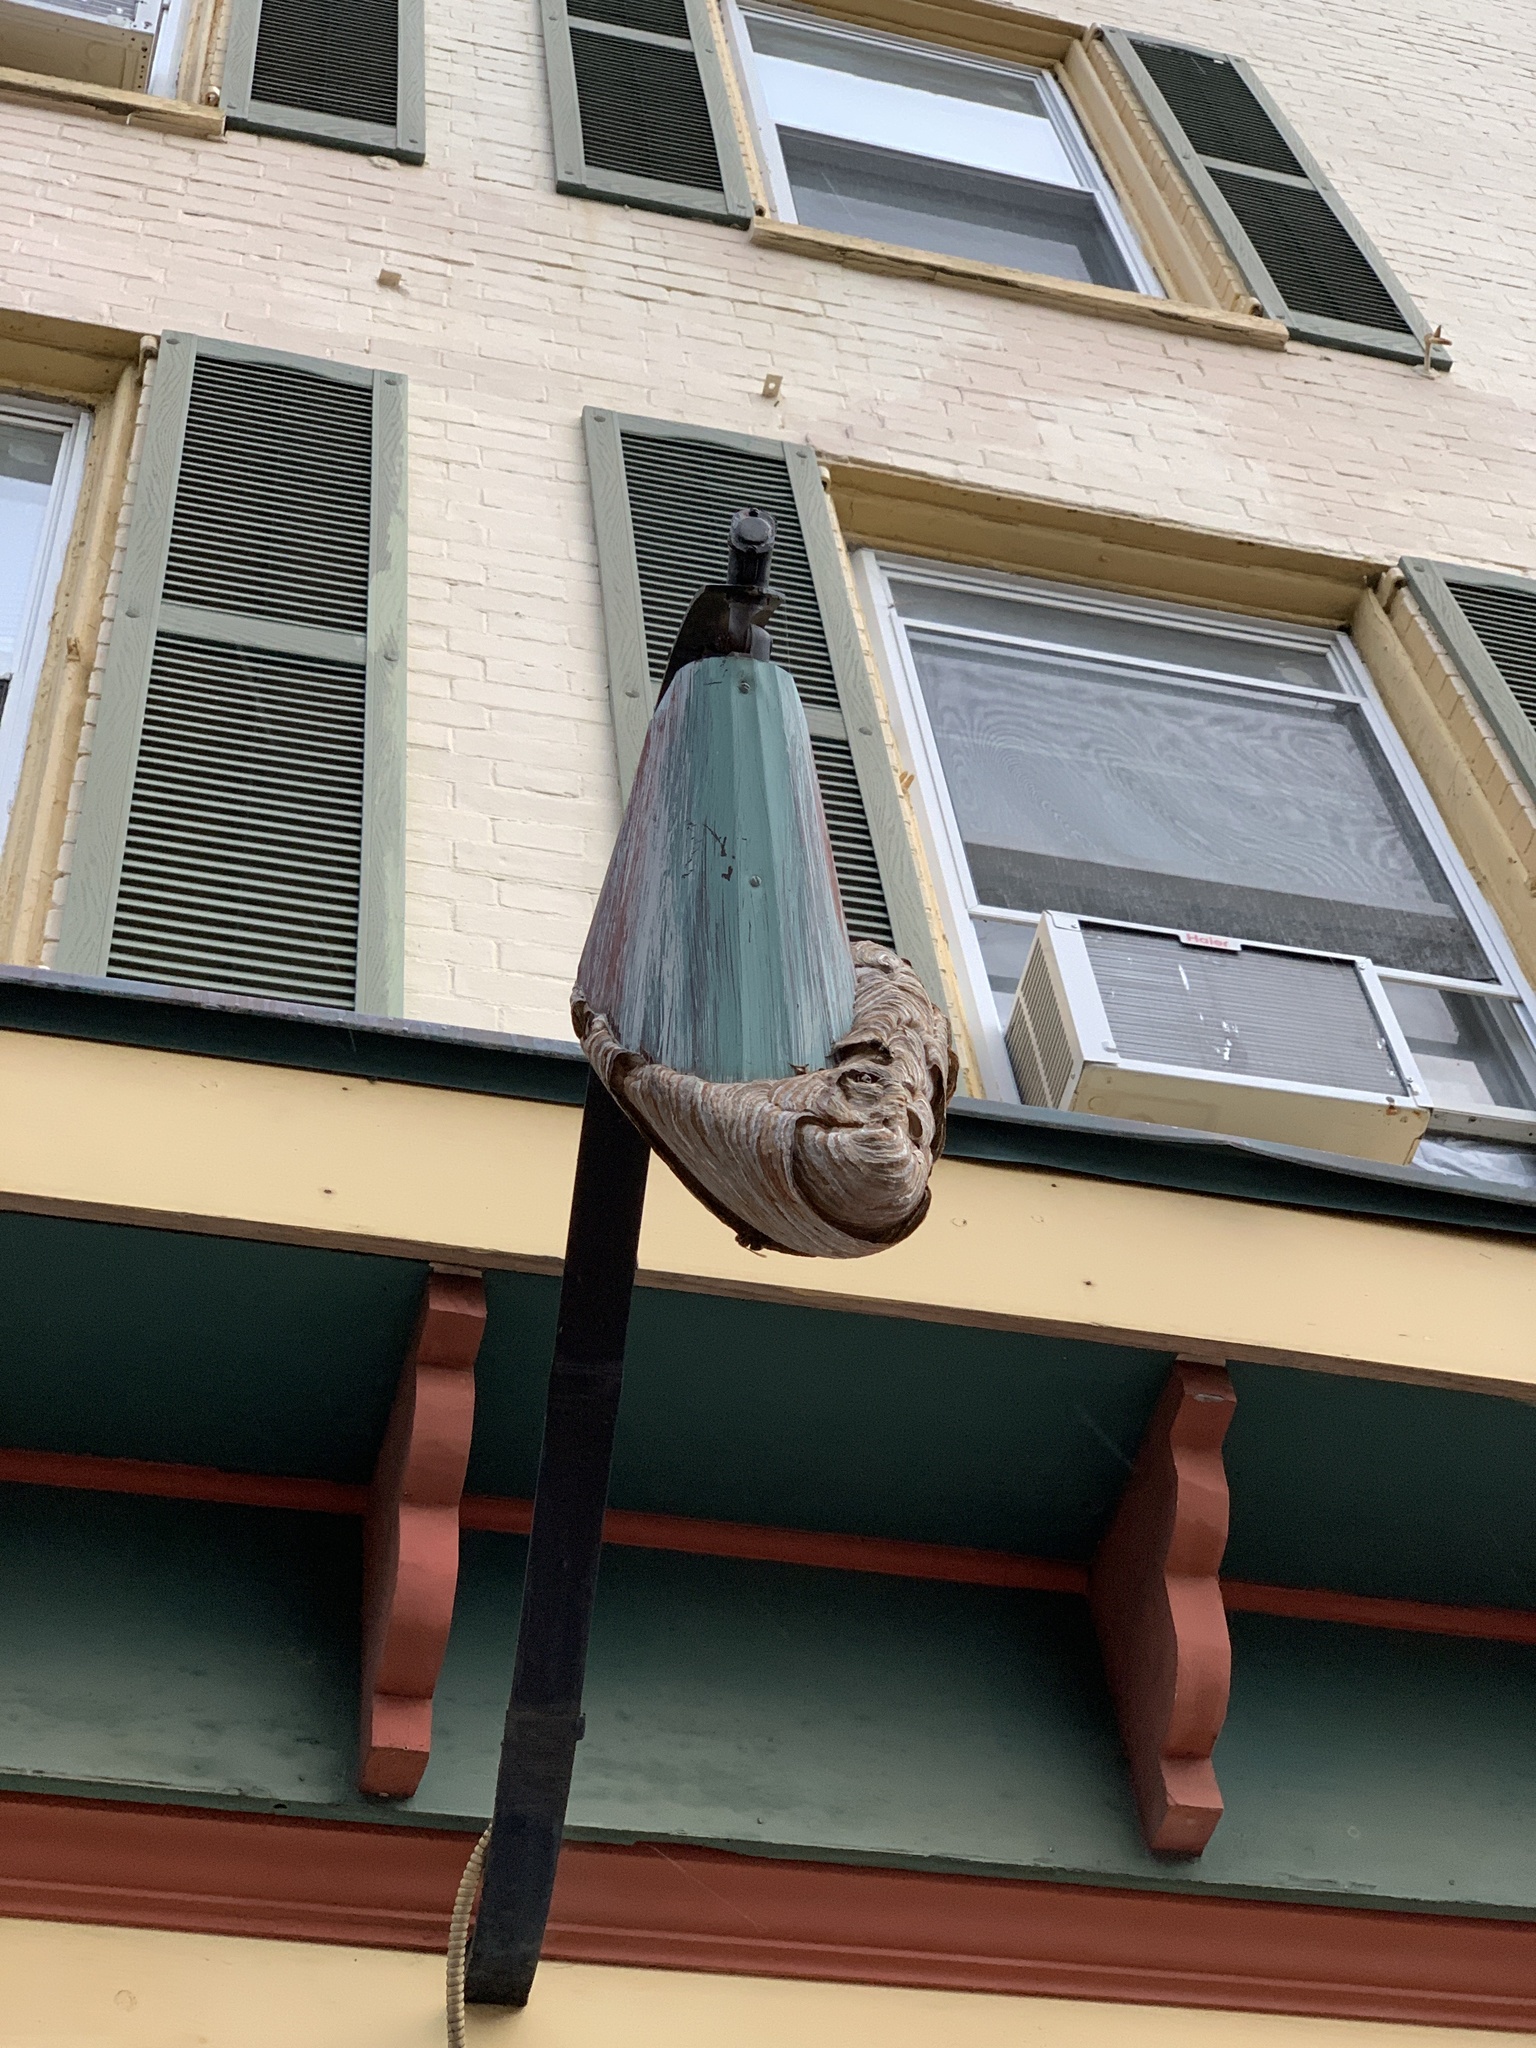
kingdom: Animalia
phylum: Arthropoda
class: Insecta
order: Hymenoptera
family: Vespidae
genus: Dolichovespula
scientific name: Dolichovespula
